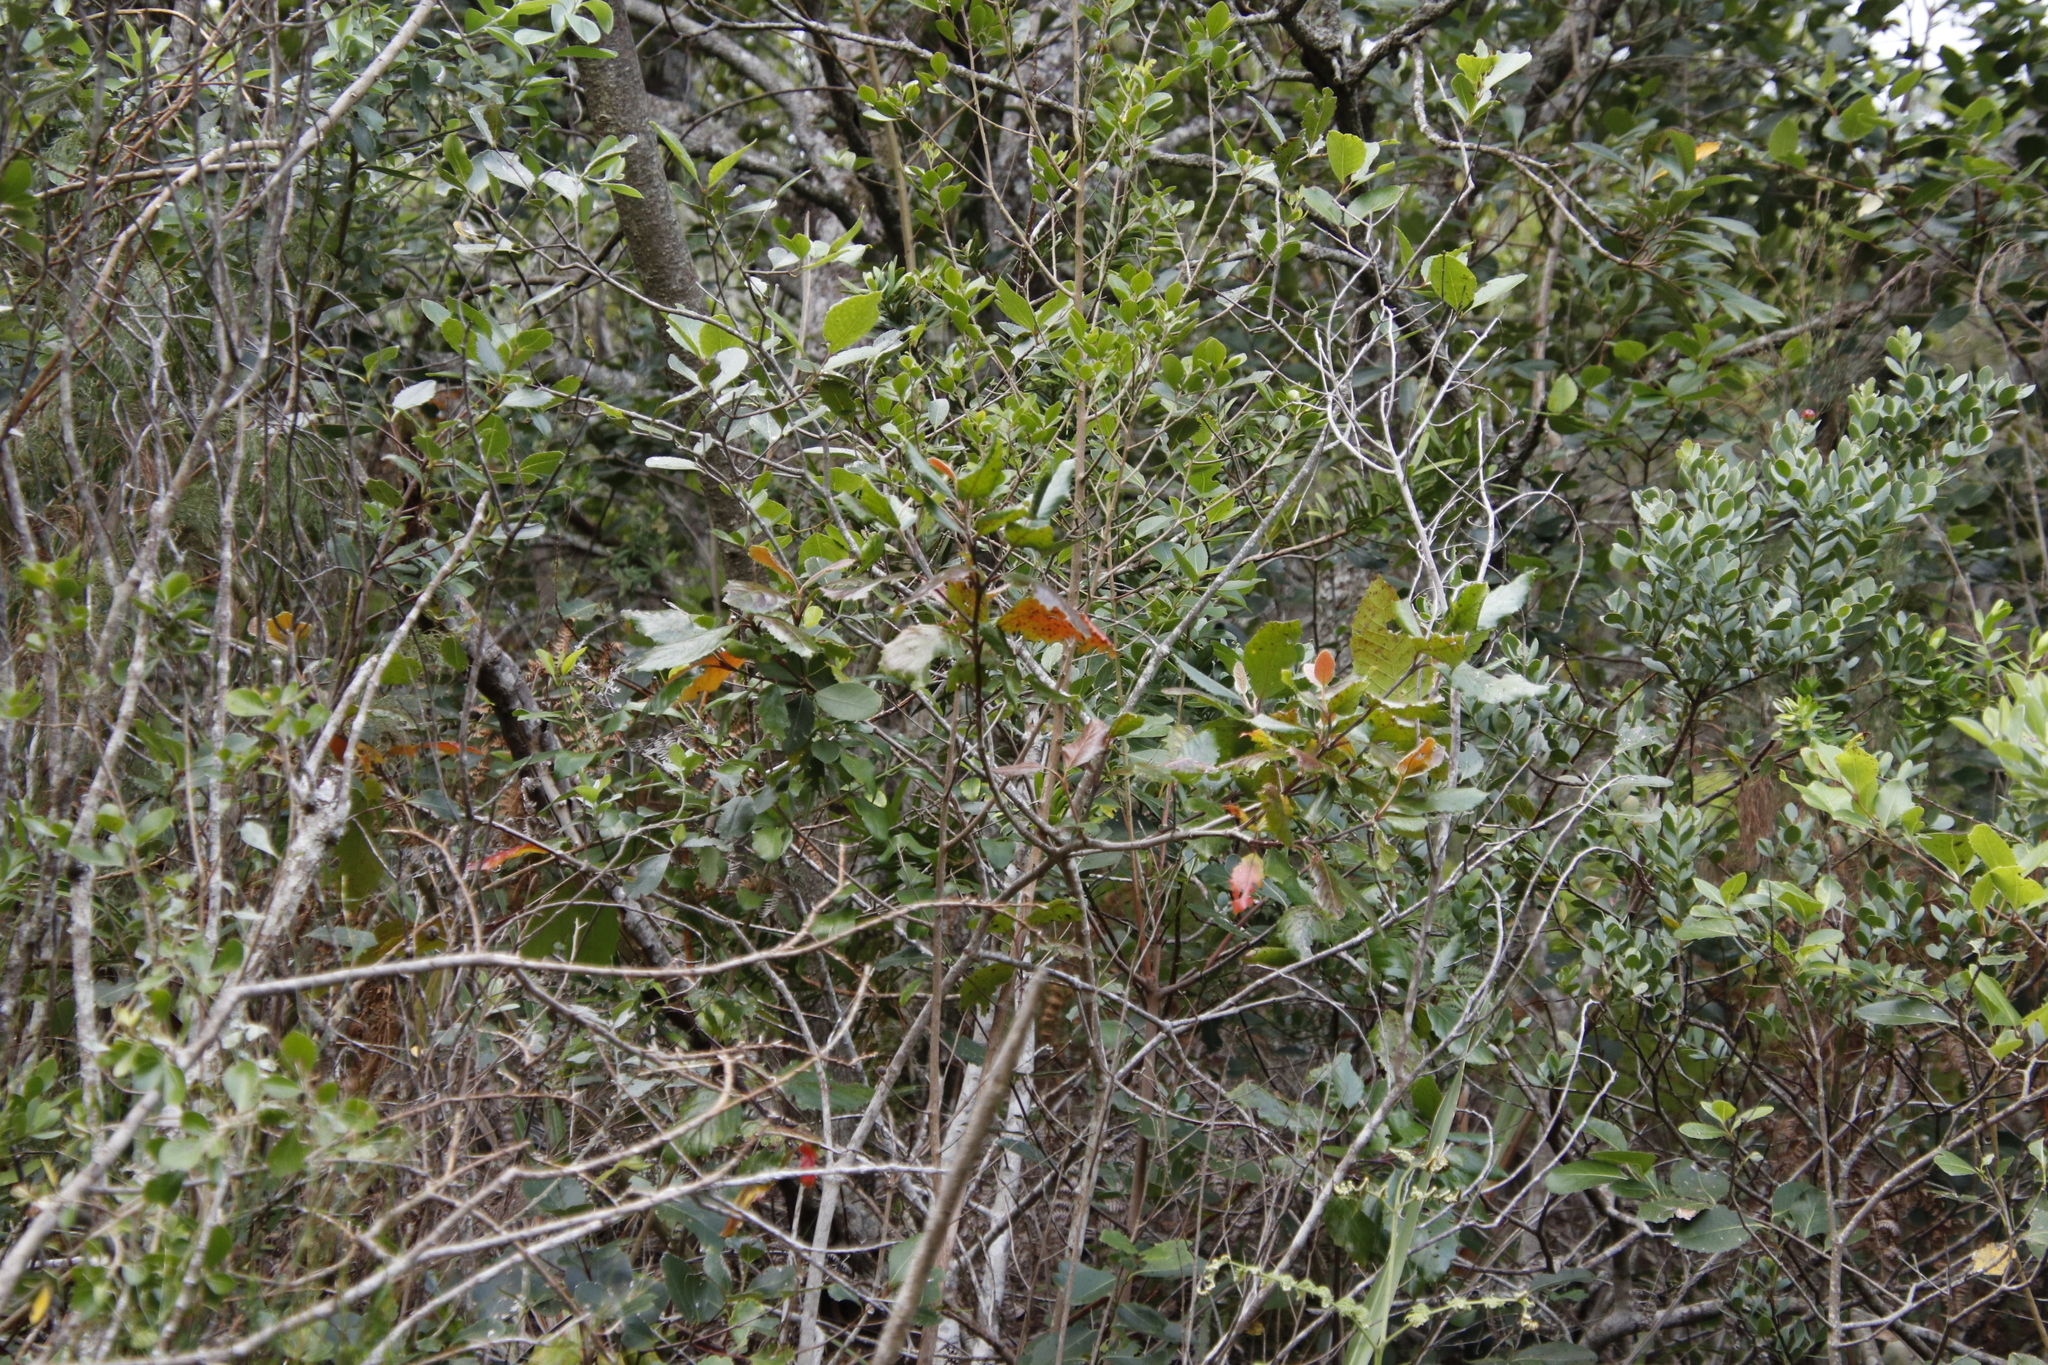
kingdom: Plantae
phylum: Tracheophyta
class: Magnoliopsida
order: Cornales
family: Curtisiaceae
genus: Curtisia
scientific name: Curtisia dentata
